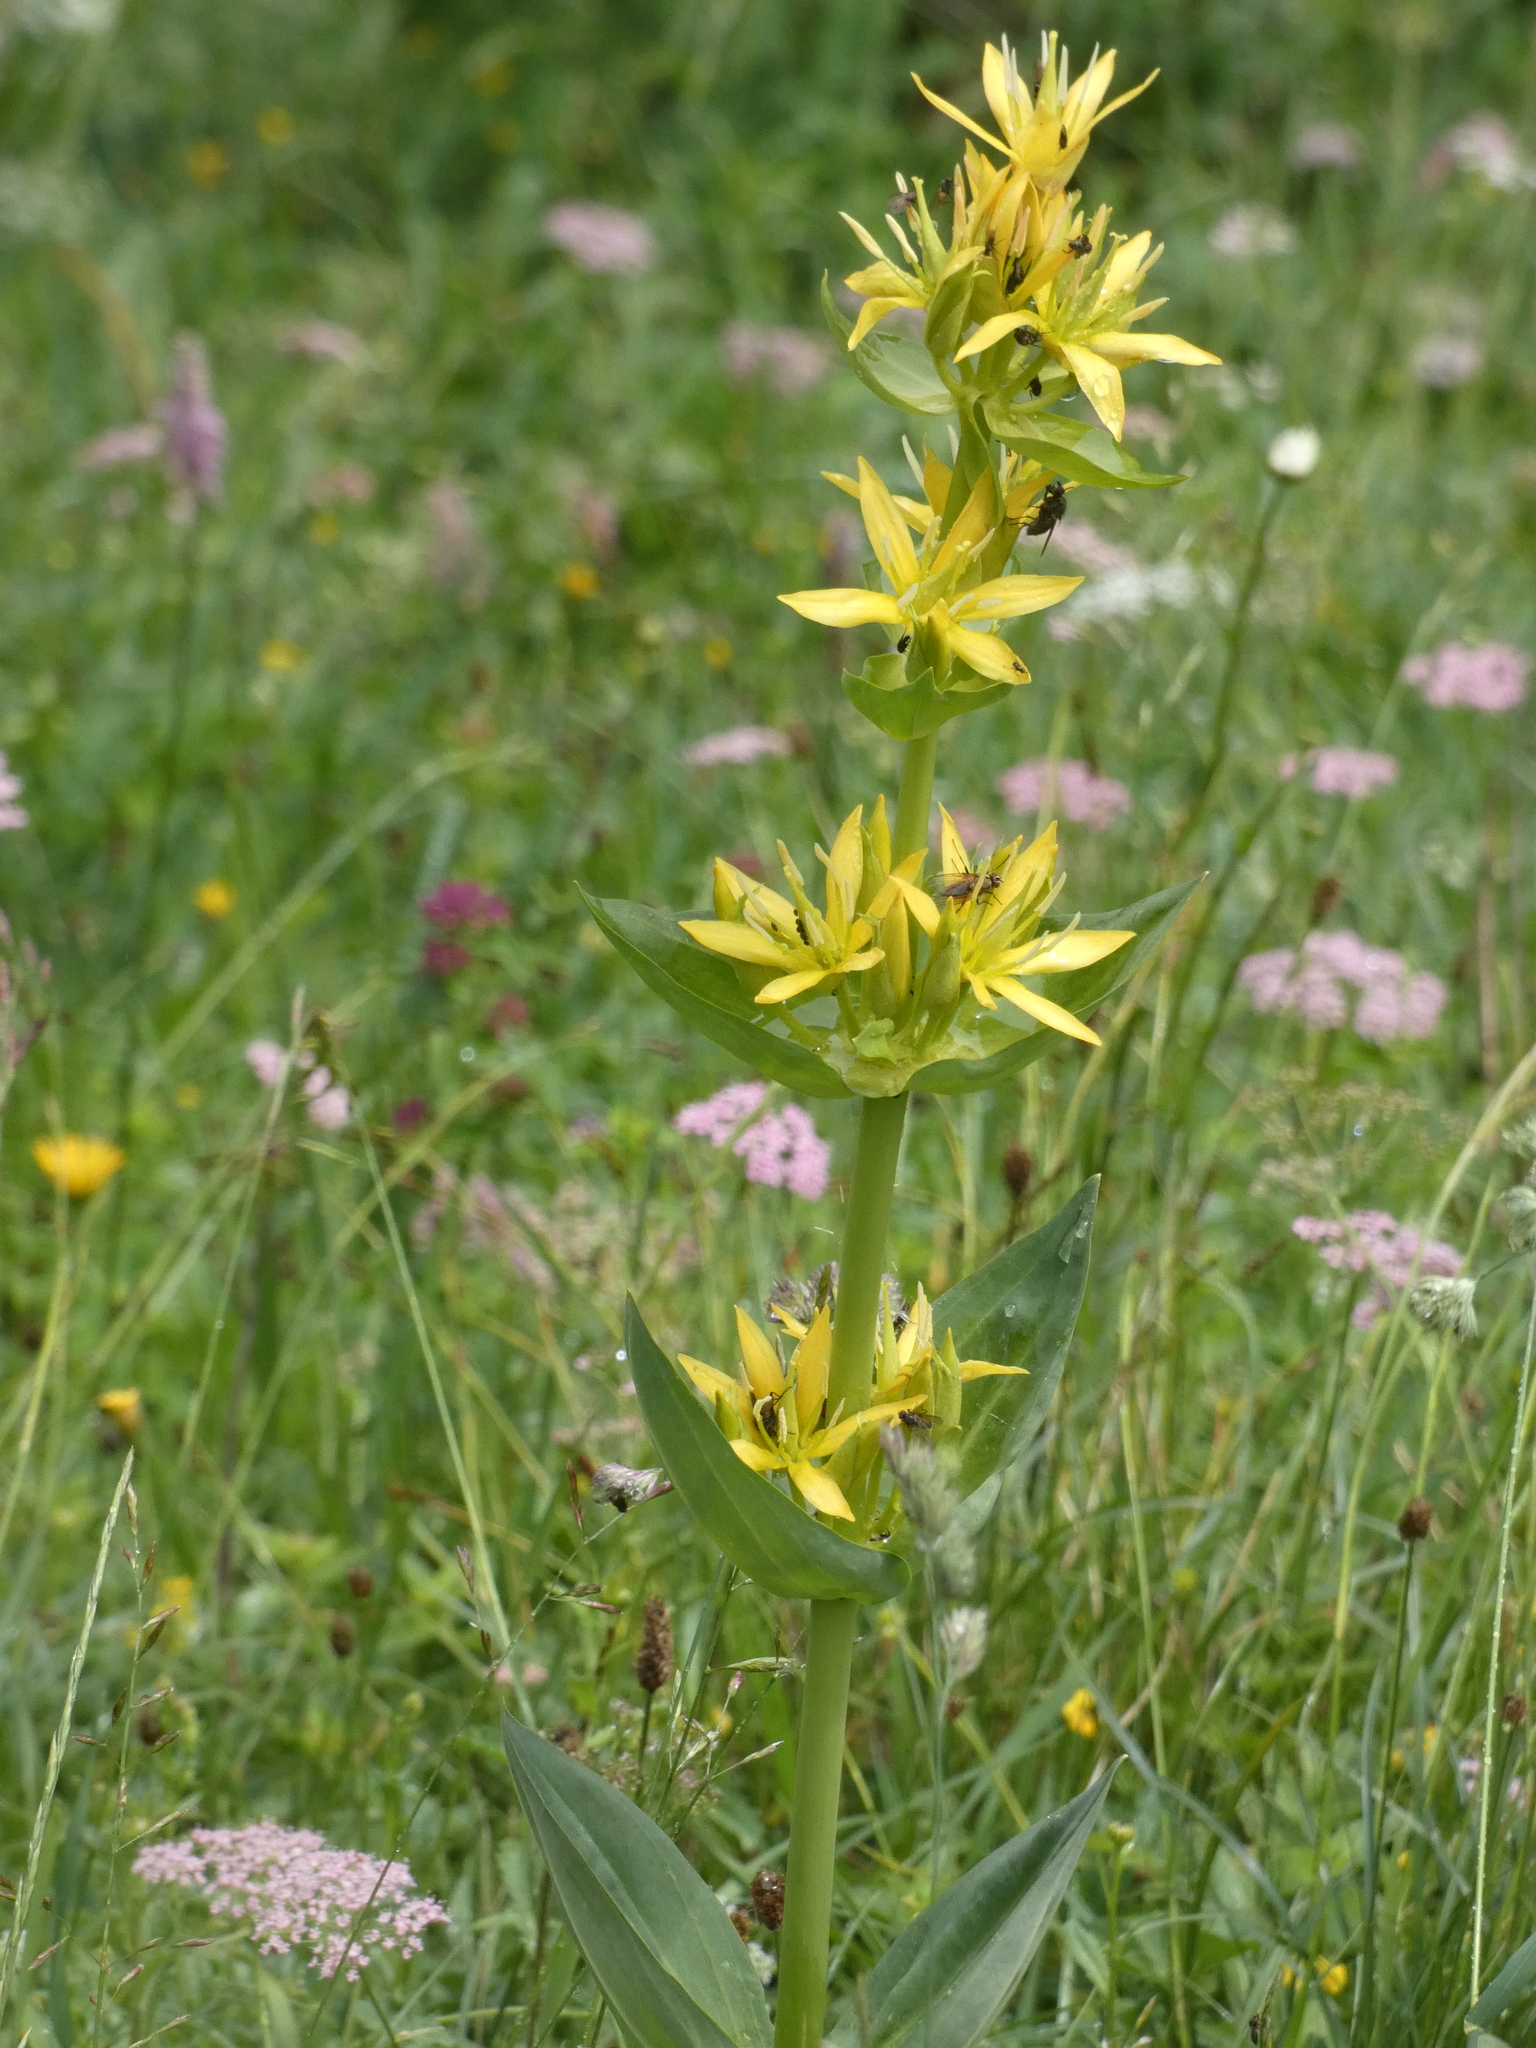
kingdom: Plantae
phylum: Tracheophyta
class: Magnoliopsida
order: Gentianales
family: Gentianaceae
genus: Gentiana
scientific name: Gentiana lutea
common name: Great yellow gentian
